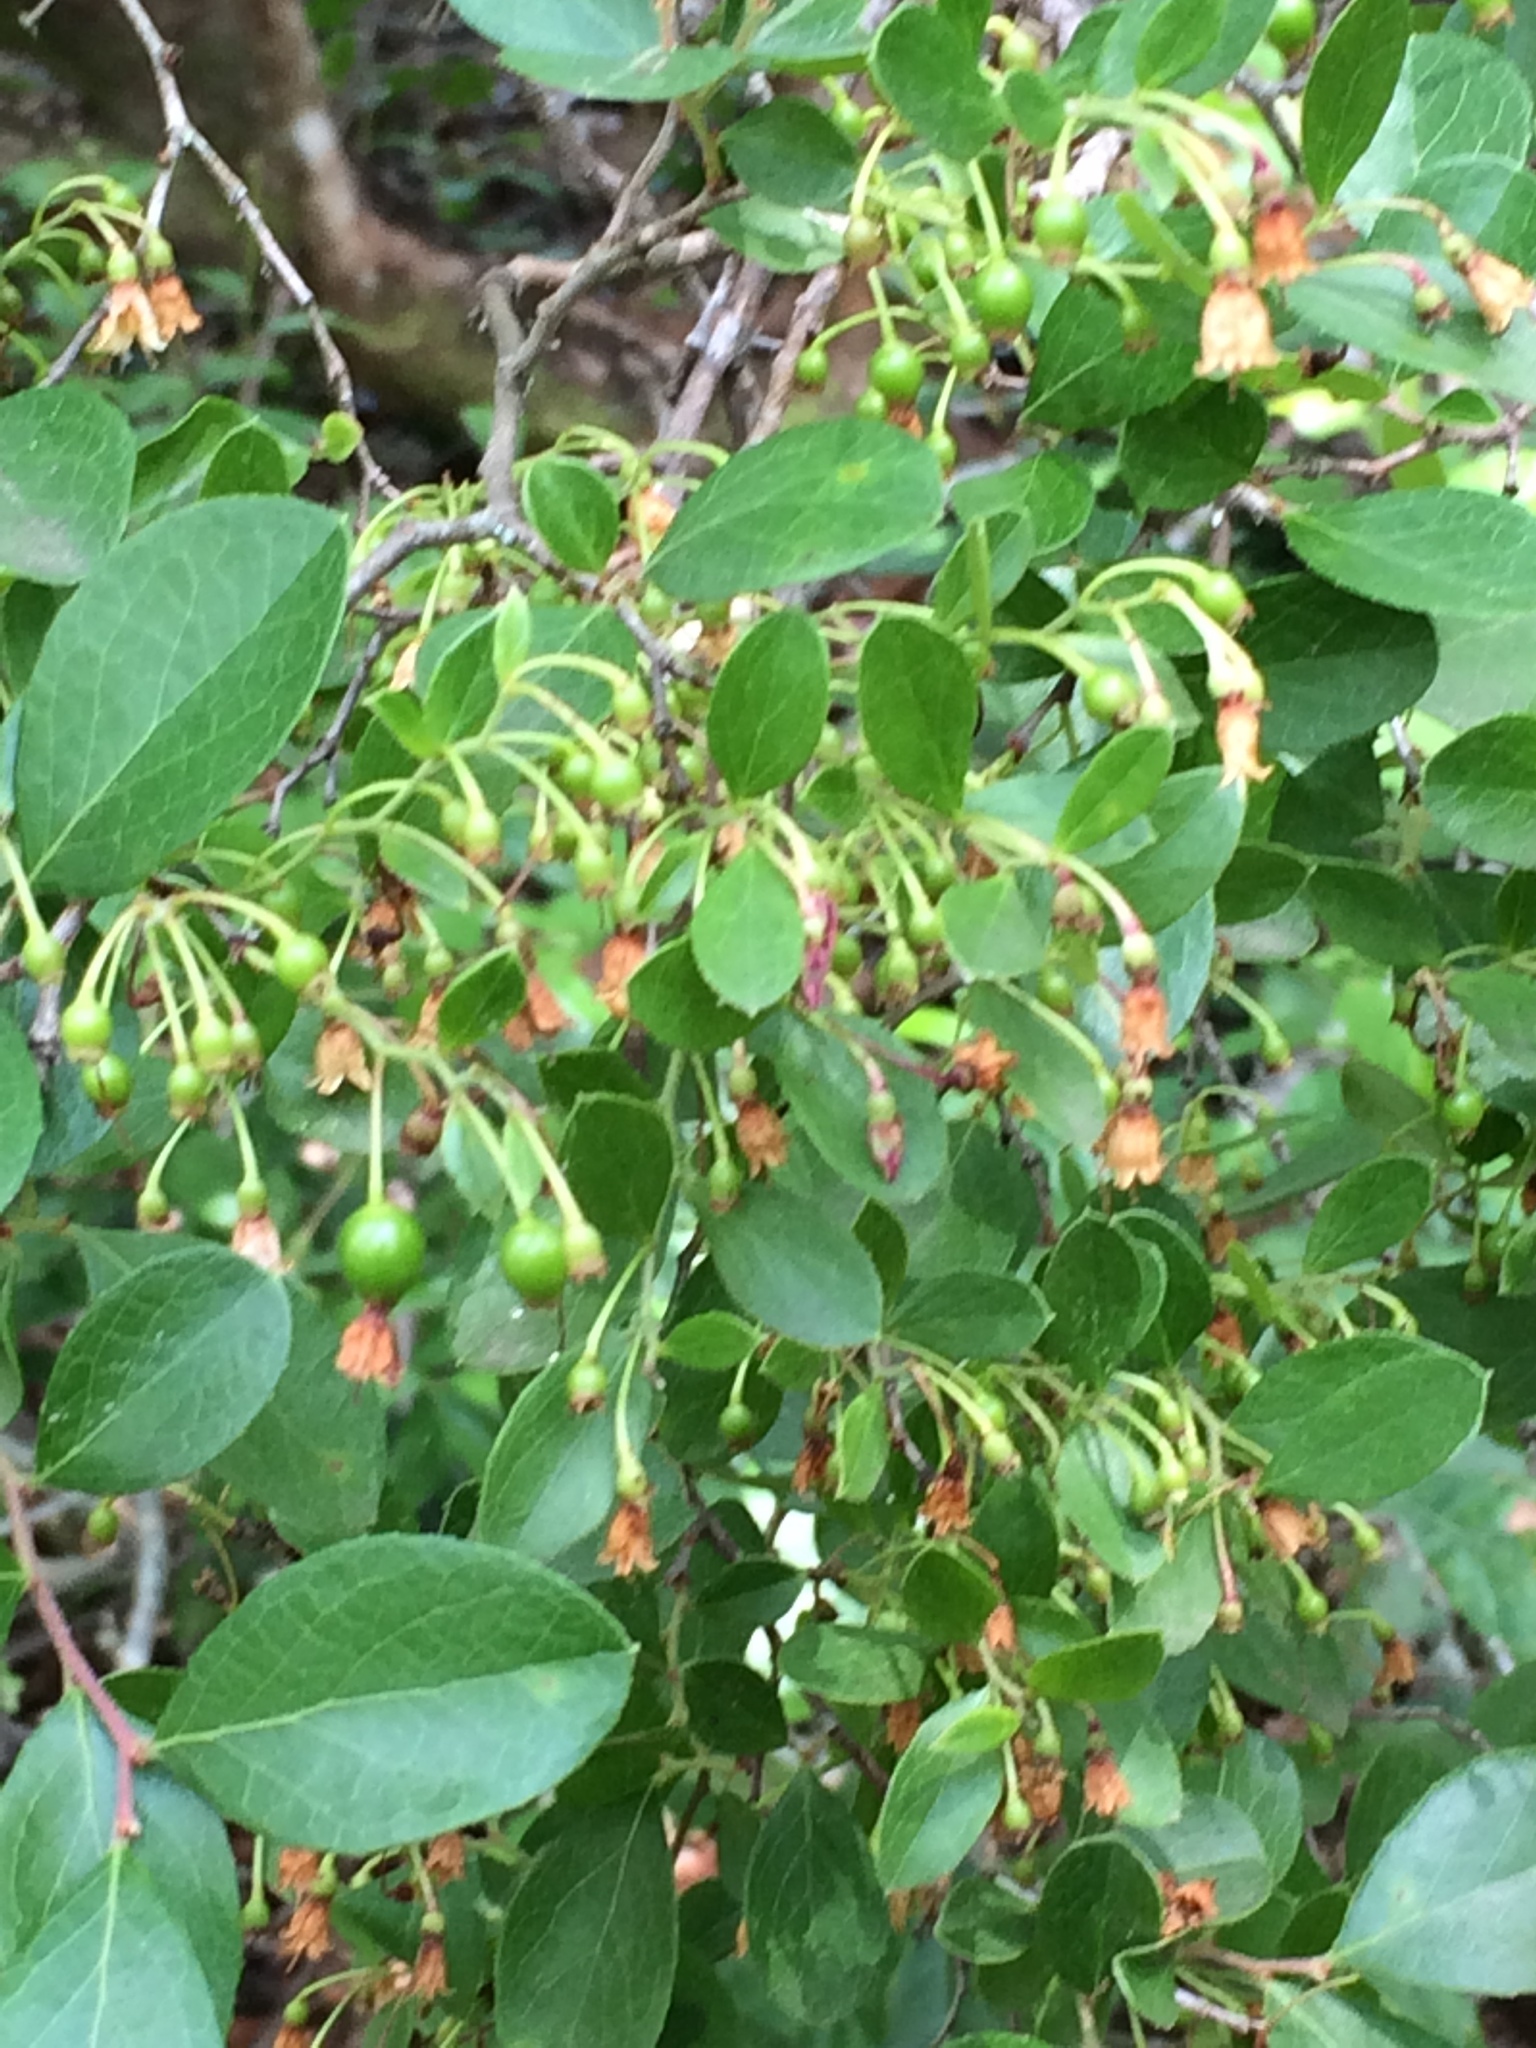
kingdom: Plantae
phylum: Tracheophyta
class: Magnoliopsida
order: Ericales
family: Ericaceae
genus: Vaccinium
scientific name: Vaccinium arboreum
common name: Farkleberry
